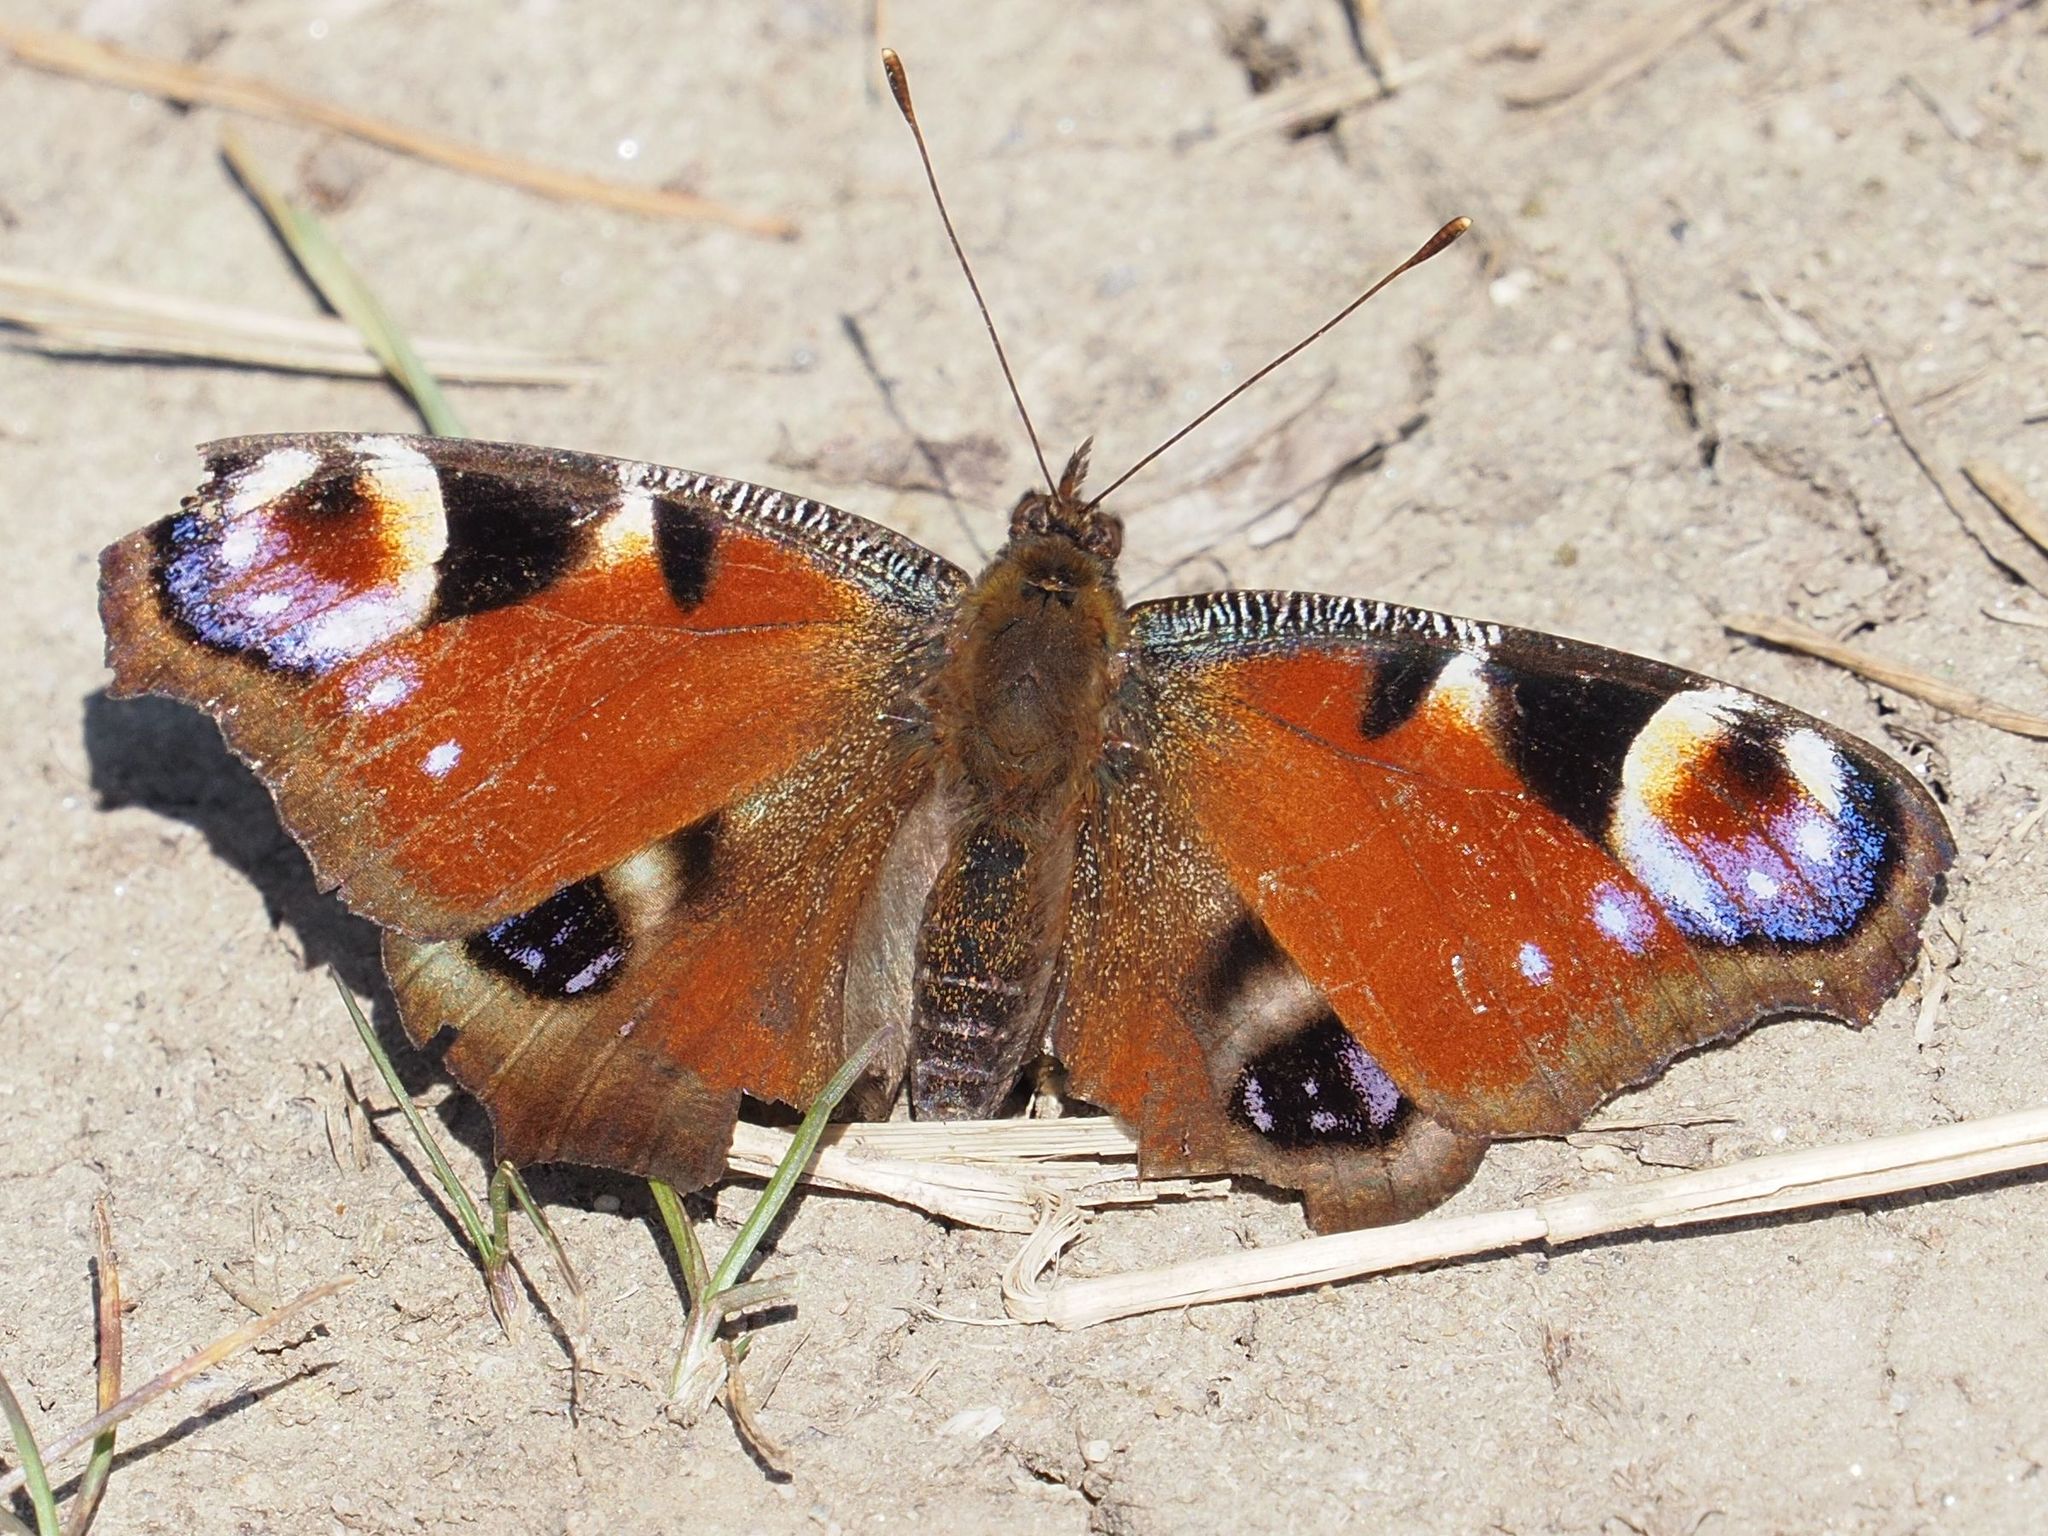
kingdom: Animalia
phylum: Arthropoda
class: Insecta
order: Lepidoptera
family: Nymphalidae
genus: Aglais
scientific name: Aglais io
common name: Peacock
